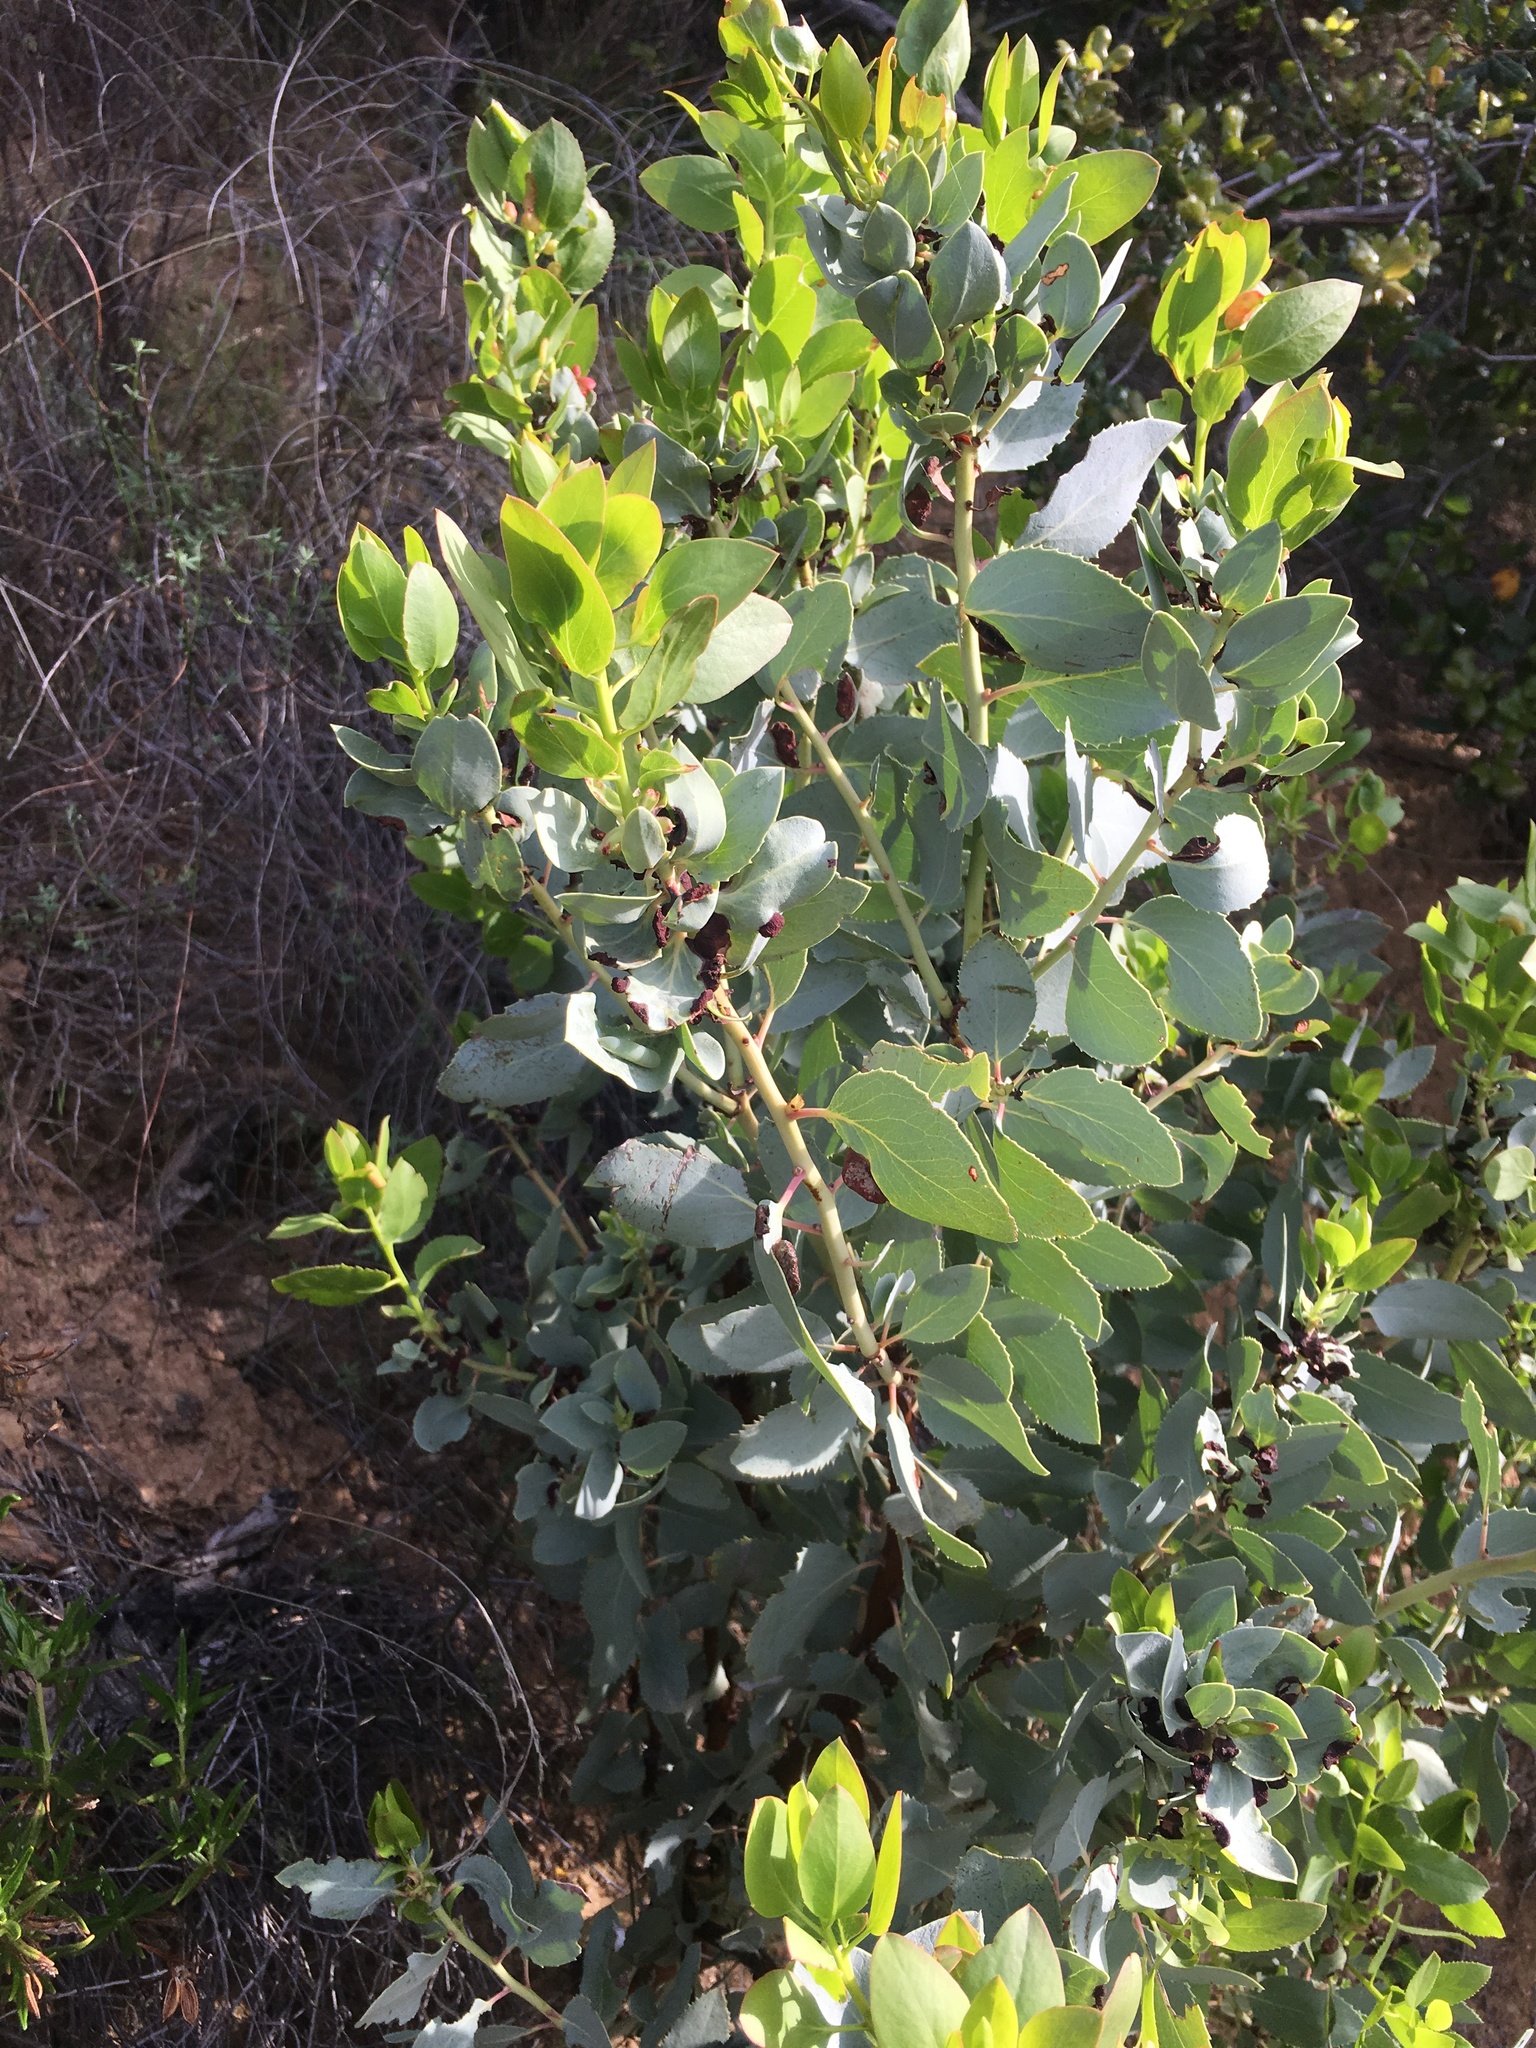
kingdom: Plantae
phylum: Tracheophyta
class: Magnoliopsida
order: Ericales
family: Ericaceae
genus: Arctostaphylos
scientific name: Arctostaphylos glauca
